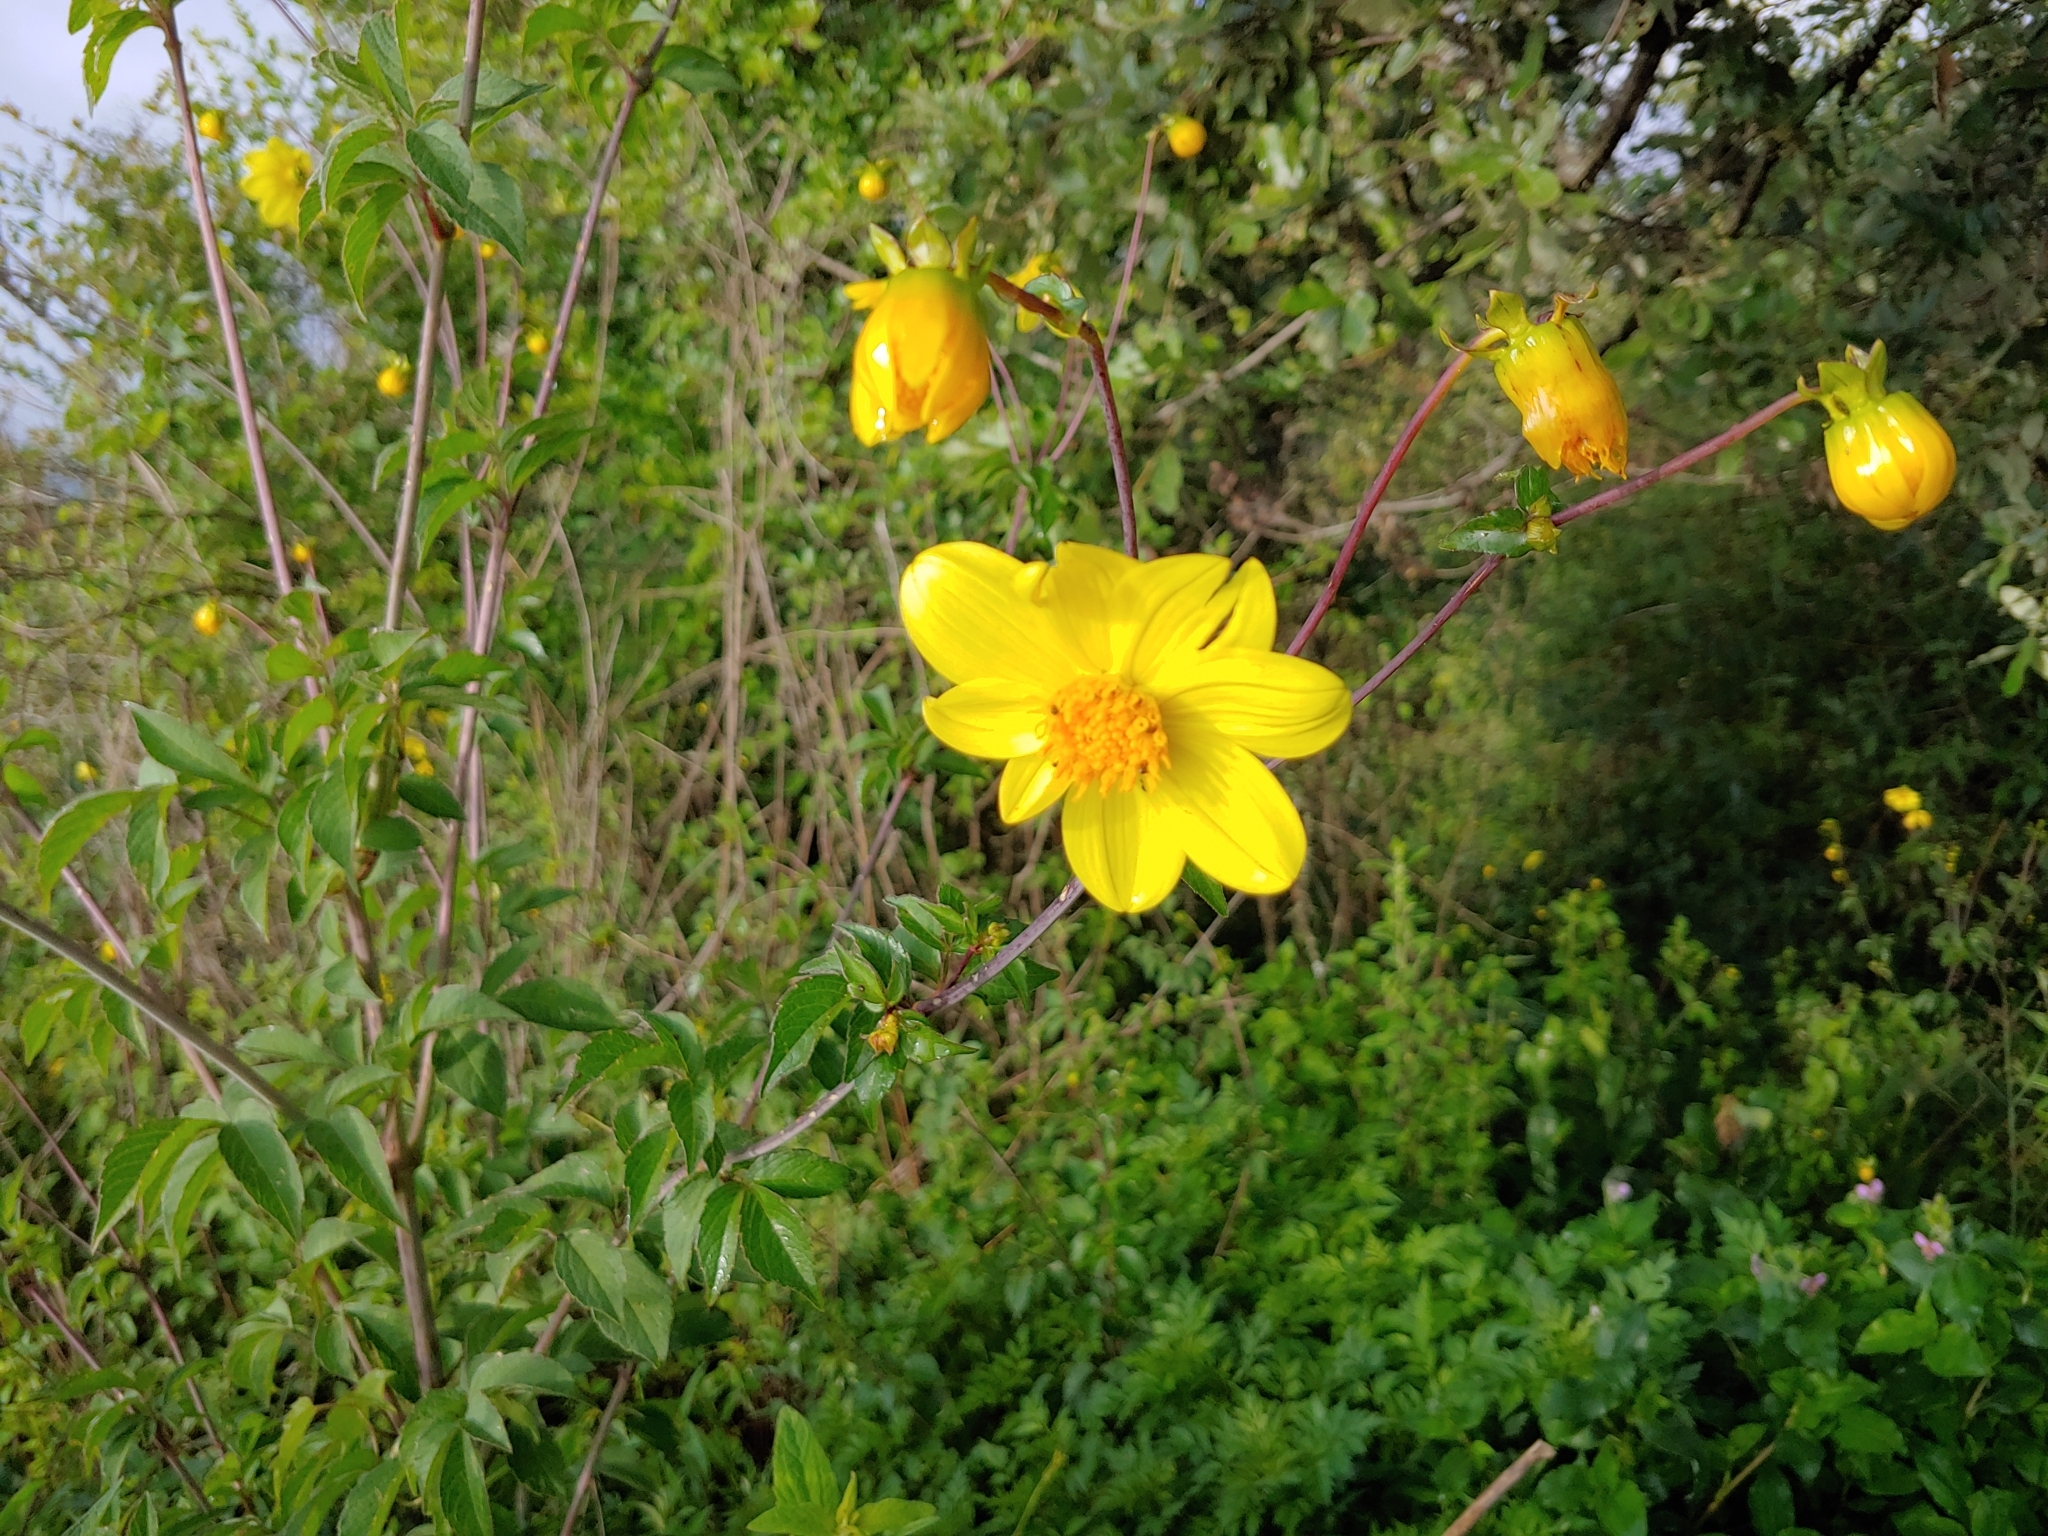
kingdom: Plantae
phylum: Tracheophyta
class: Magnoliopsida
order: Asterales
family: Asteraceae
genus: Dahlia
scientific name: Dahlia coccinea
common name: Red dahlia
